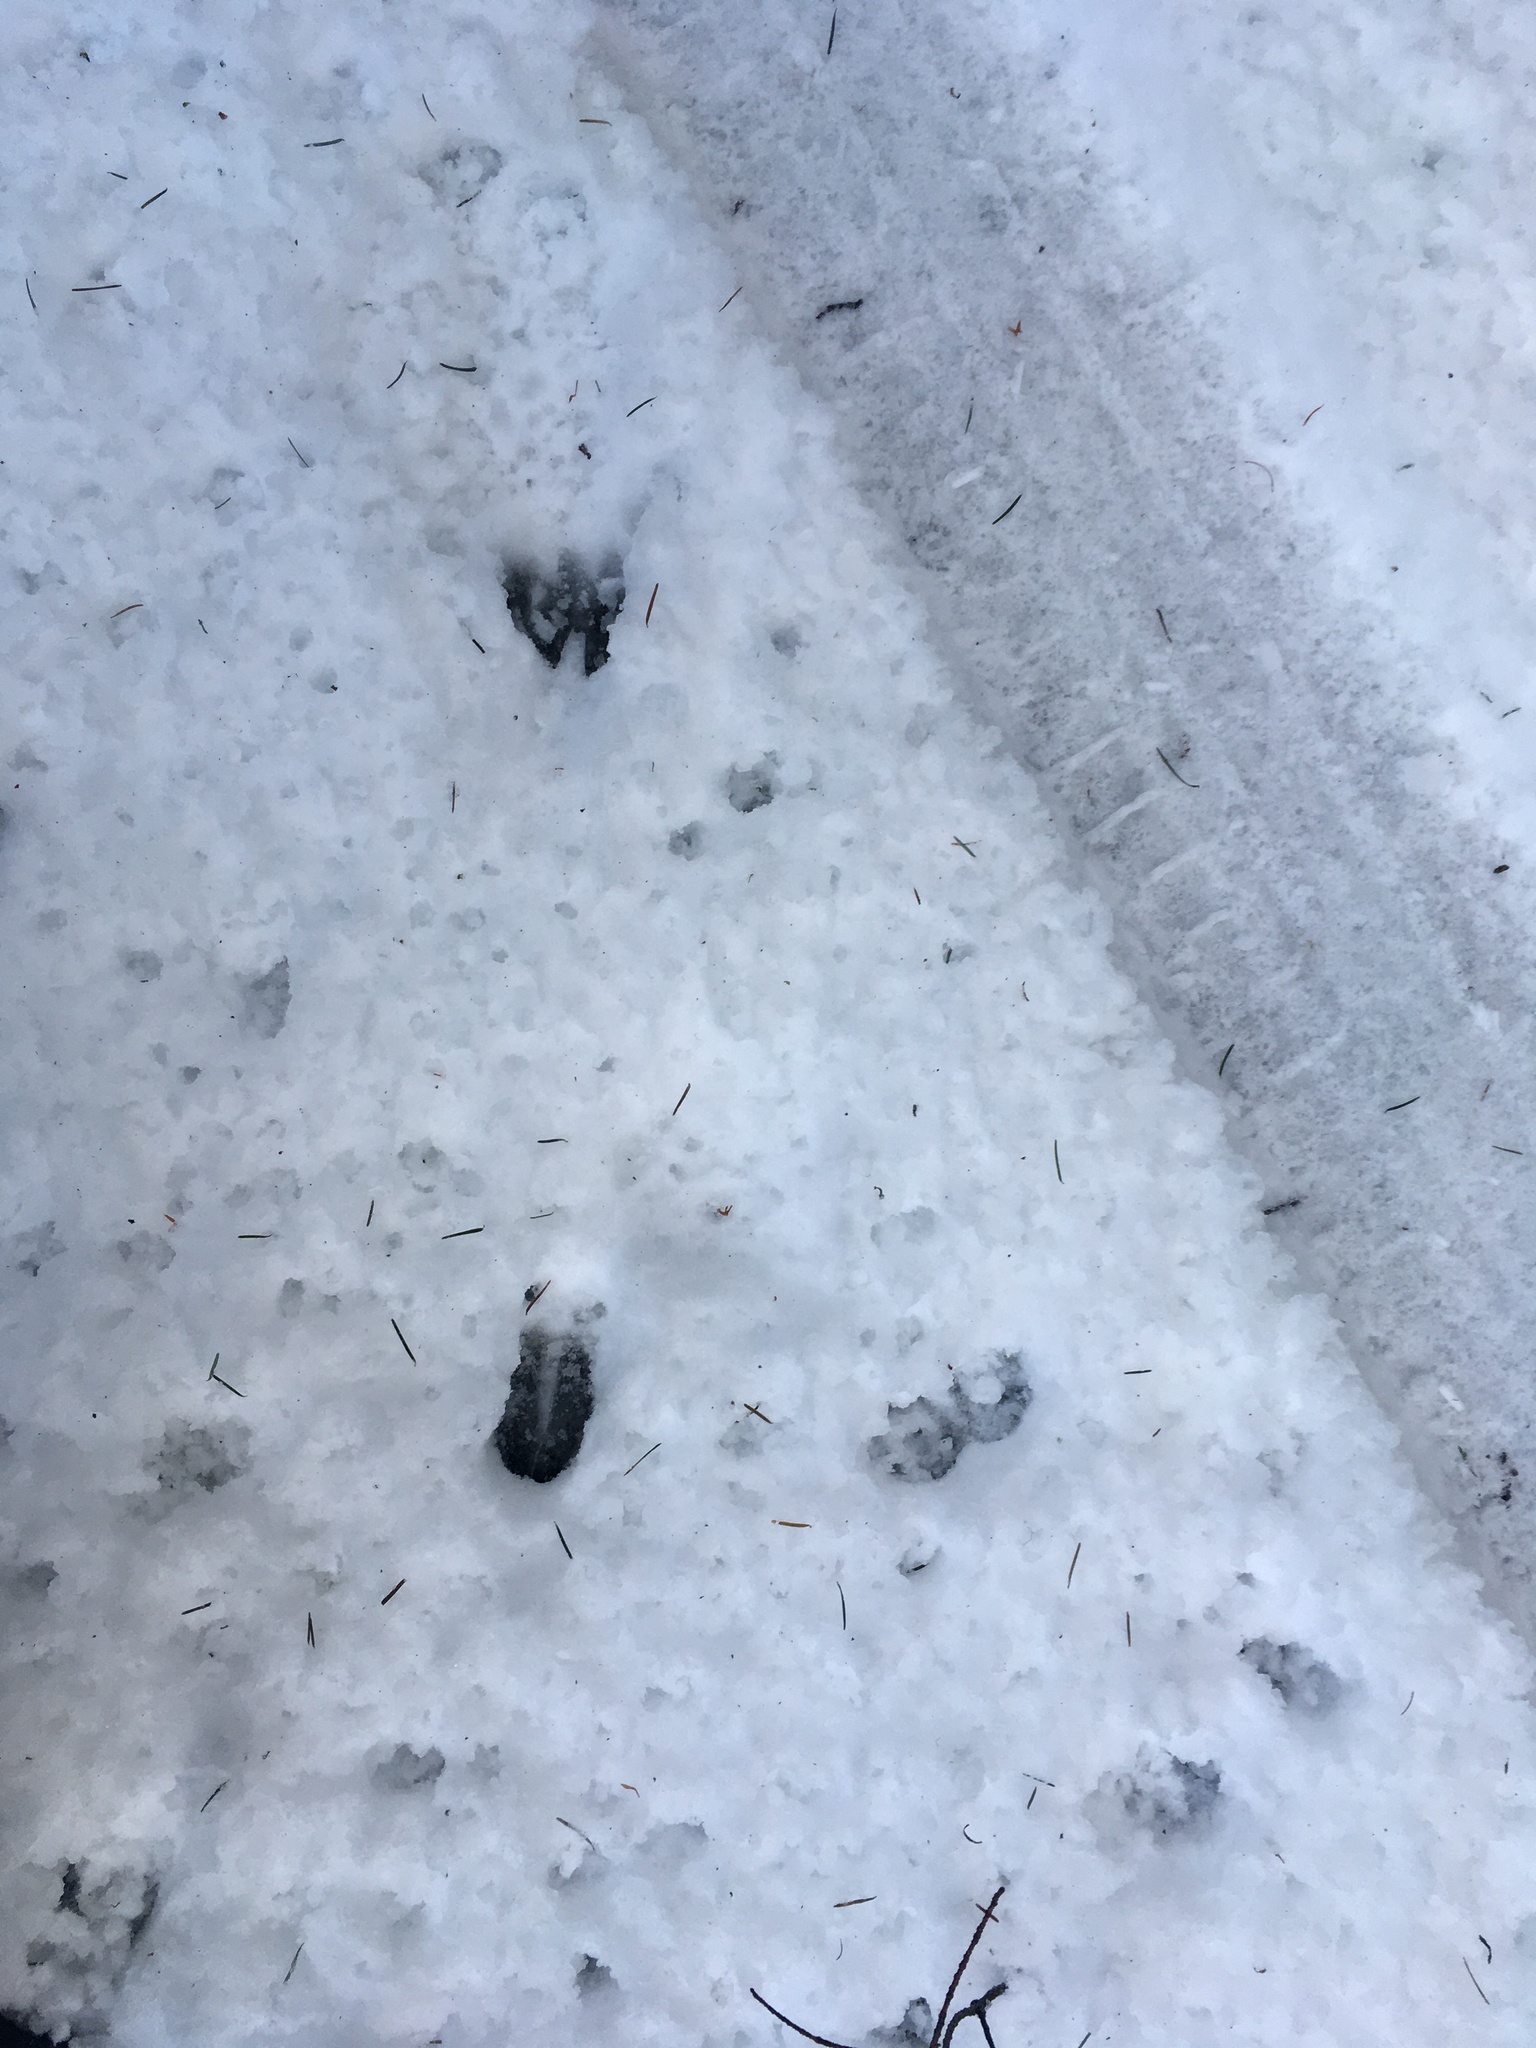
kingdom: Animalia
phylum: Chordata
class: Mammalia
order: Artiodactyla
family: Cervidae
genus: Odocoileus
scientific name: Odocoileus hemionus
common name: Mule deer
